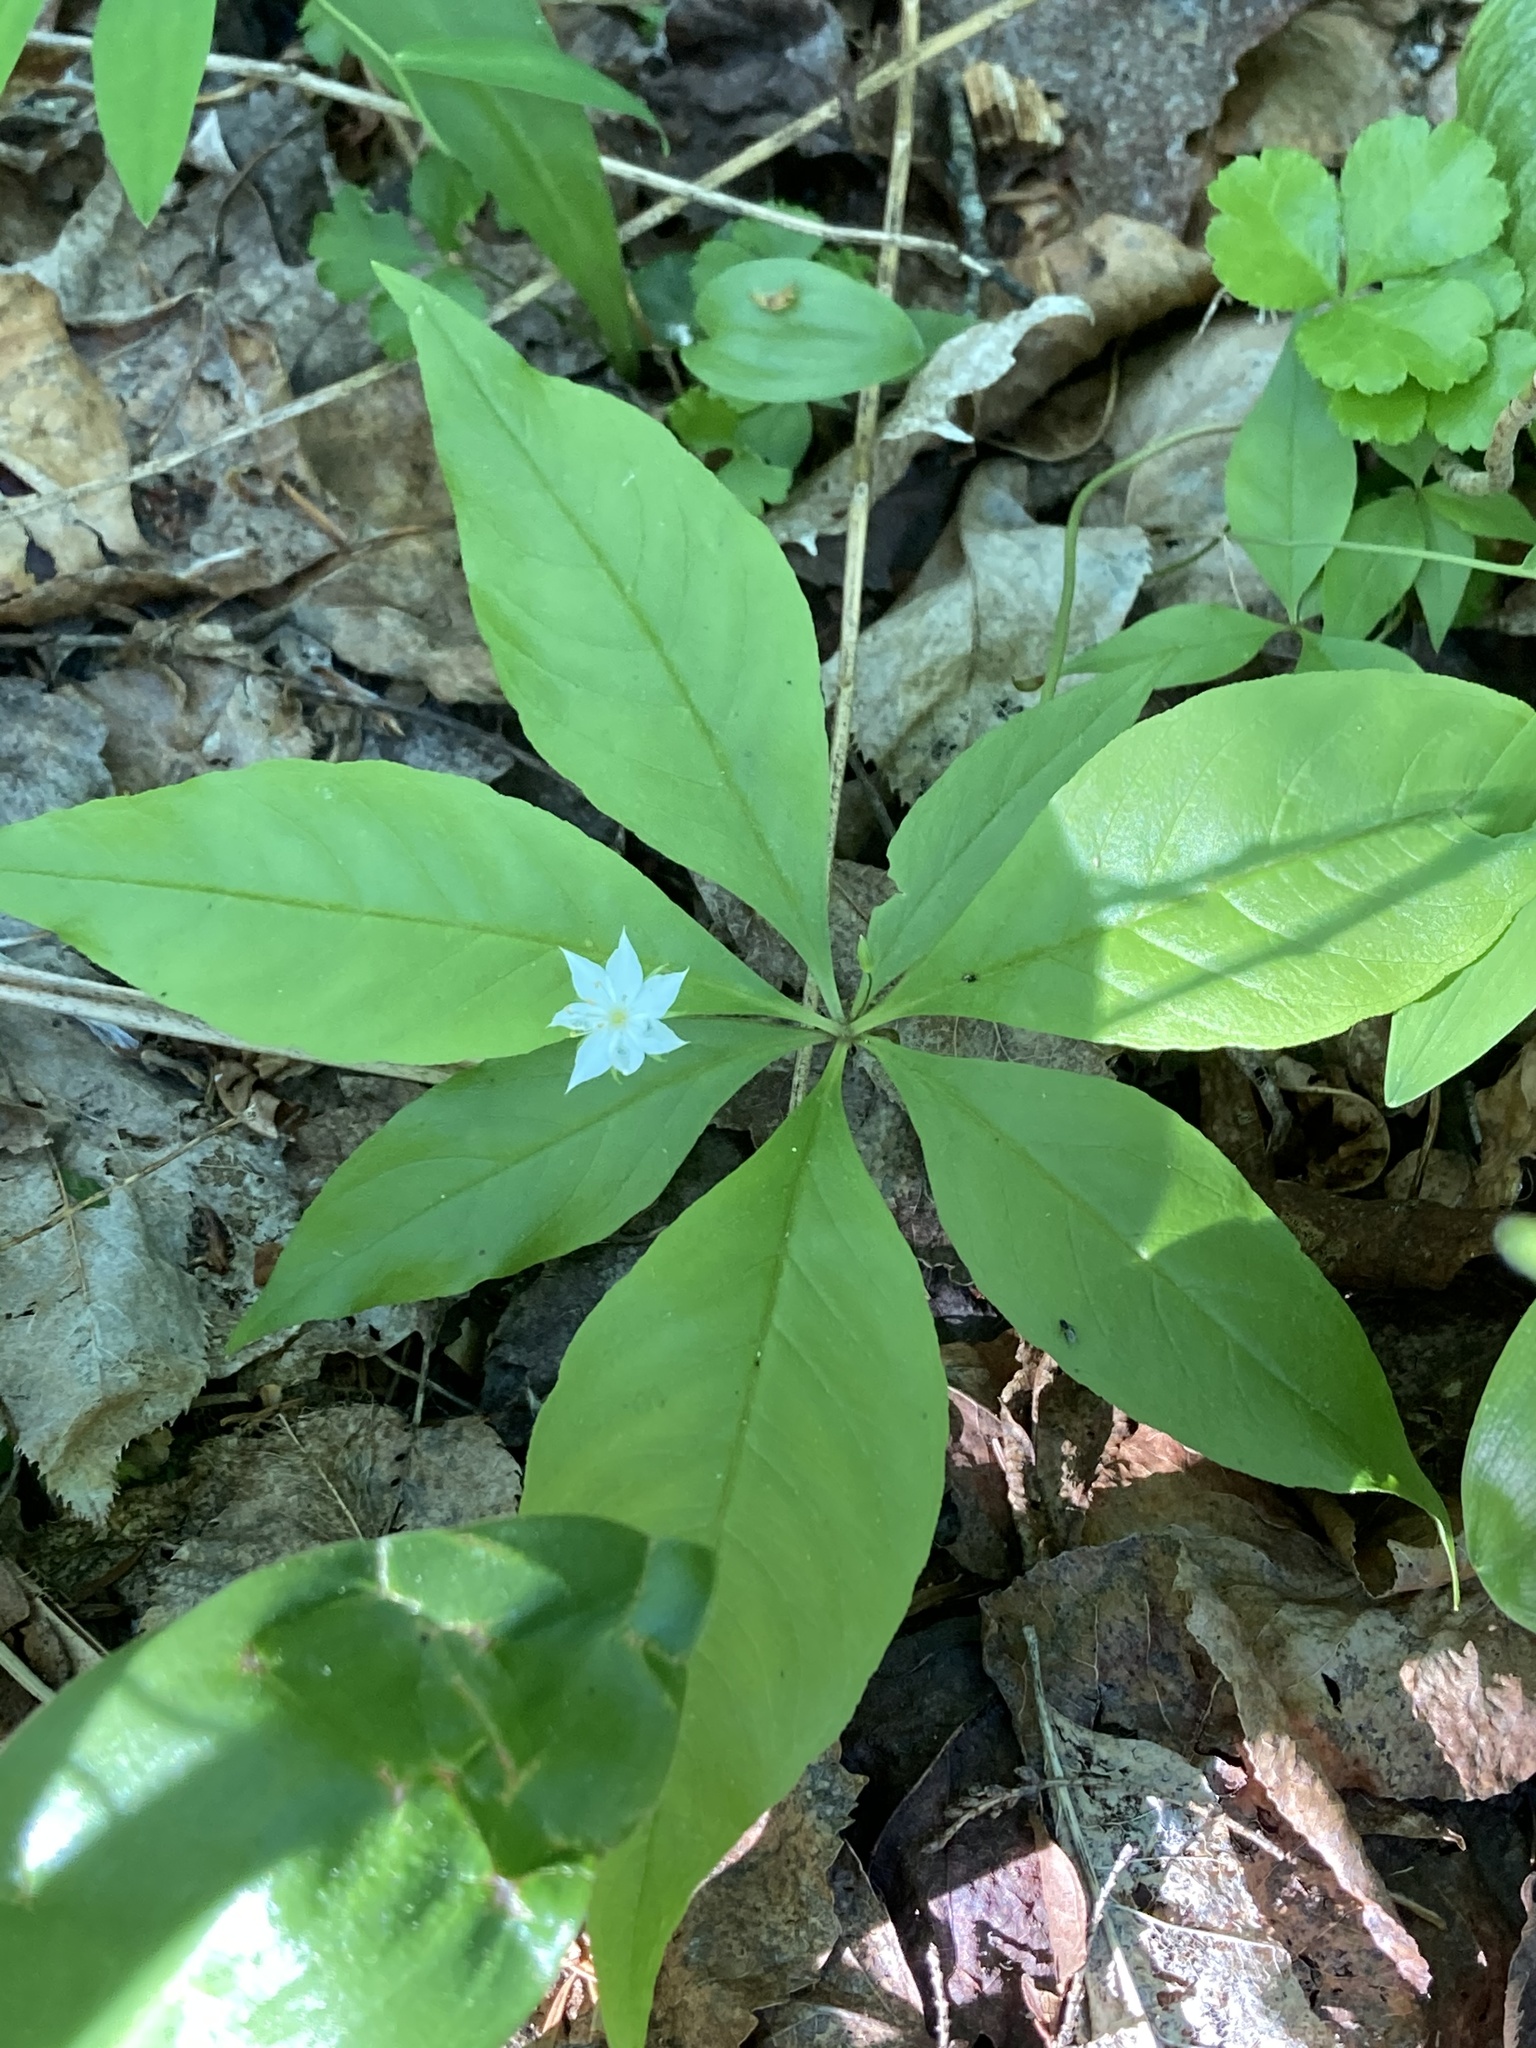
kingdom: Plantae
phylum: Tracheophyta
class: Magnoliopsida
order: Ericales
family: Primulaceae
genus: Lysimachia
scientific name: Lysimachia borealis
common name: American starflower
